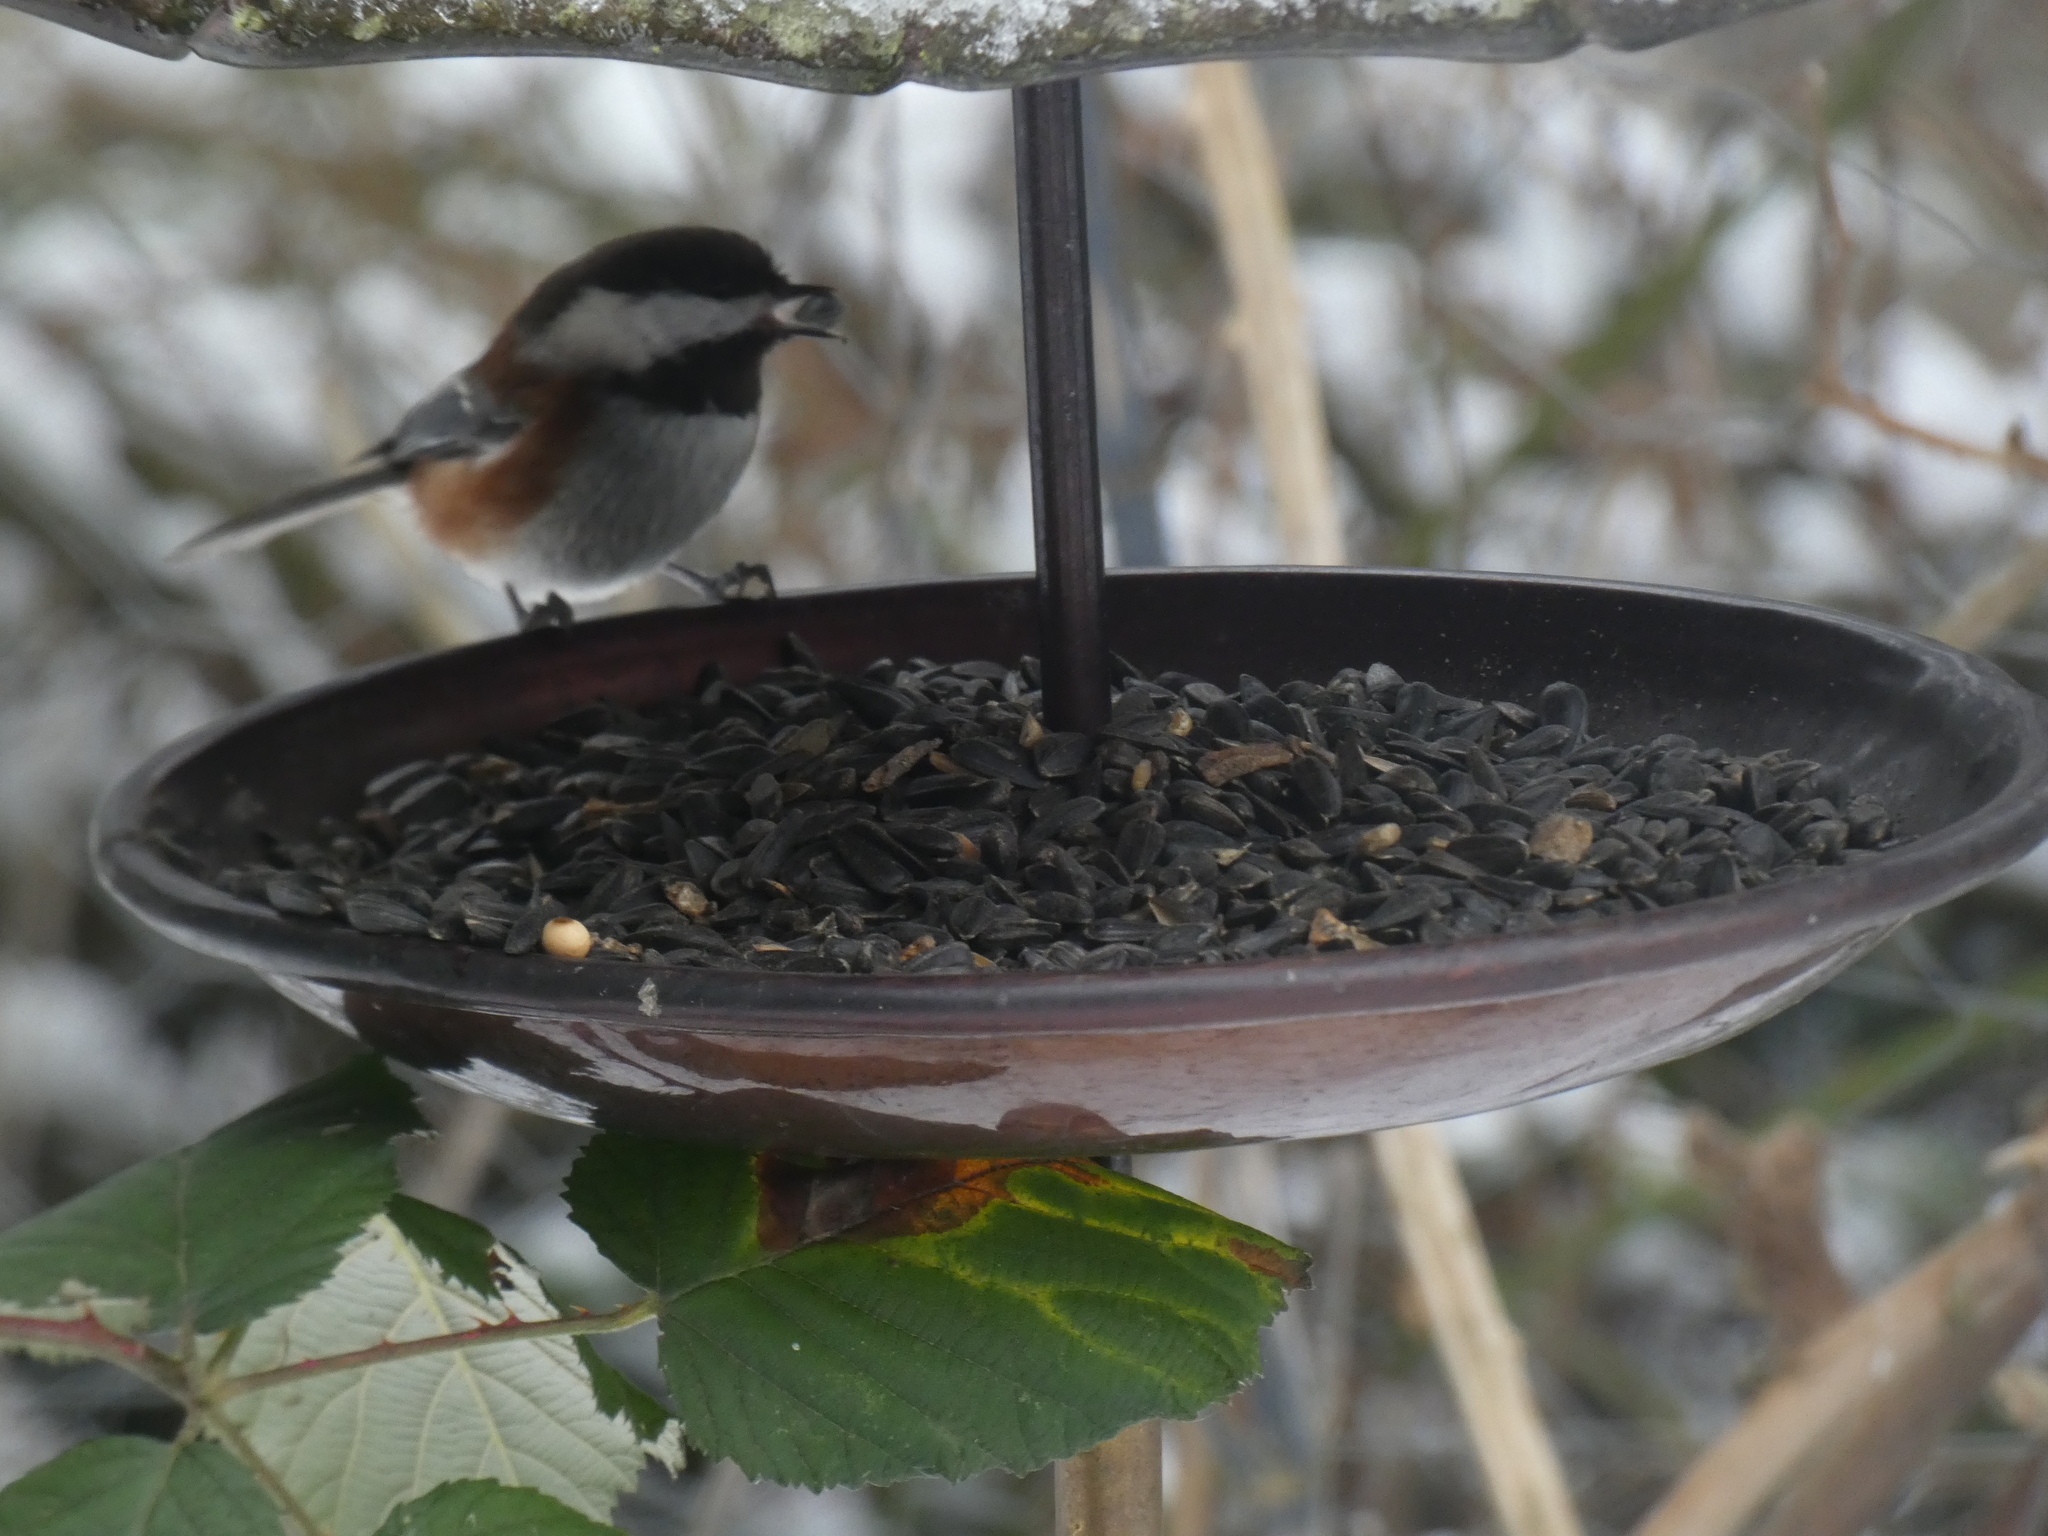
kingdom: Animalia
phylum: Chordata
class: Aves
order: Passeriformes
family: Paridae
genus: Poecile
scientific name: Poecile rufescens
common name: Chestnut-backed chickadee
